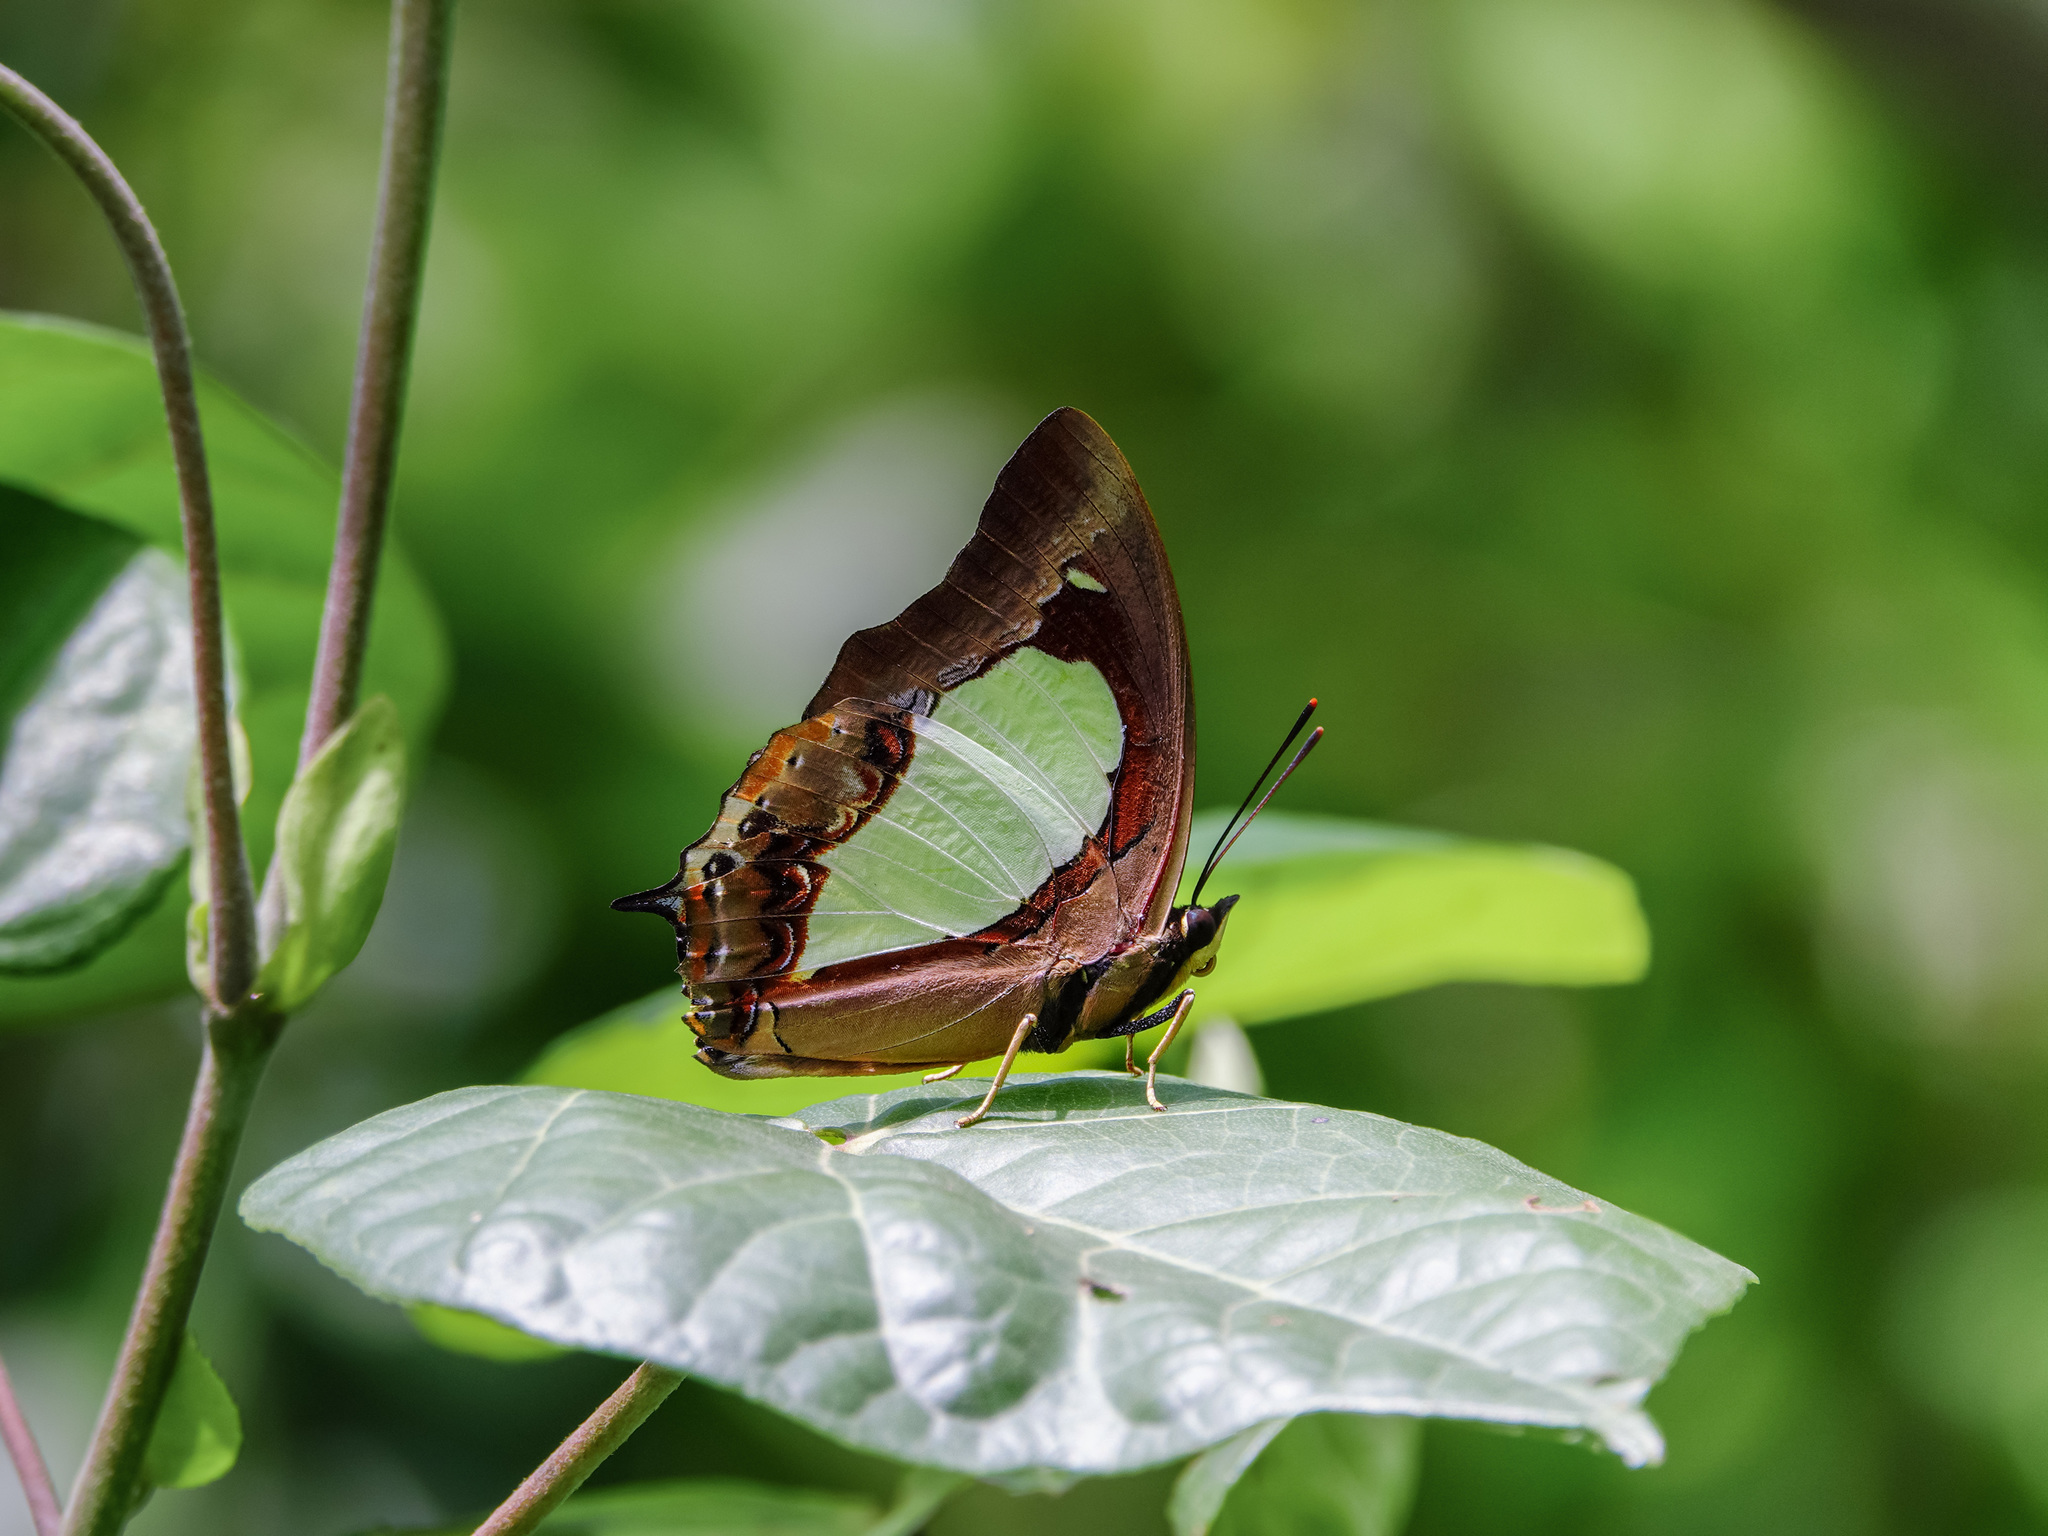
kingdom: Animalia
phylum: Arthropoda
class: Insecta
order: Lepidoptera
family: Nymphalidae
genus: Polyura
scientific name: Polyura moori
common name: Malayan nawab
